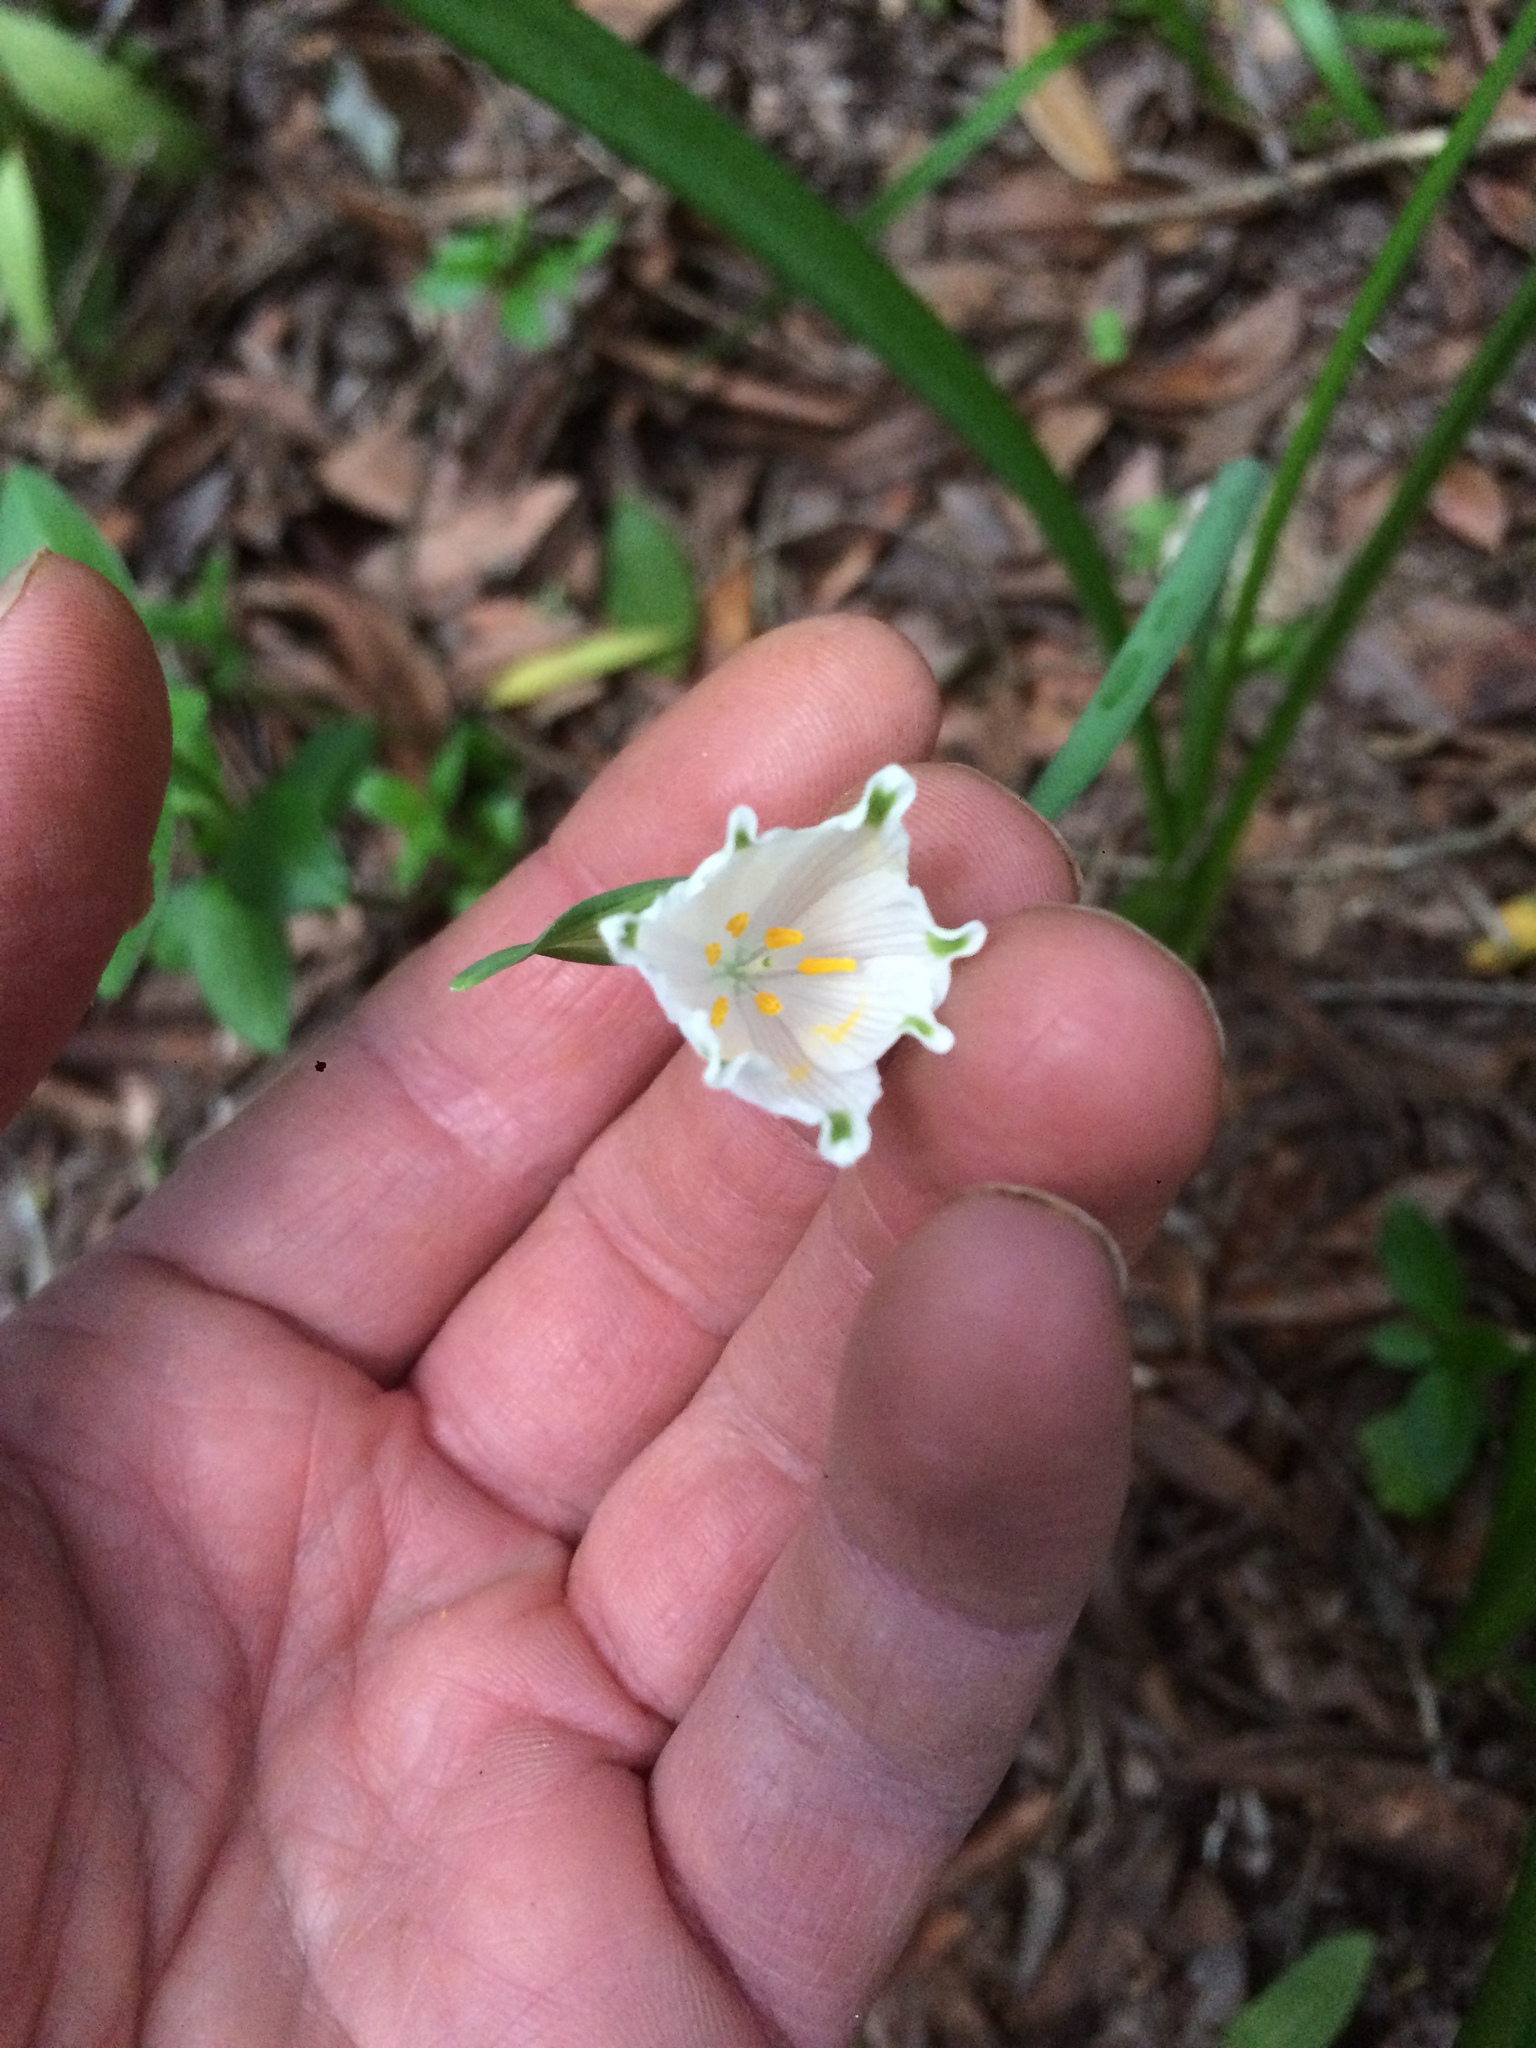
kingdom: Plantae
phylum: Tracheophyta
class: Liliopsida
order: Asparagales
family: Amaryllidaceae
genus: Leucojum
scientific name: Leucojum aestivum
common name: Summer snowflake
